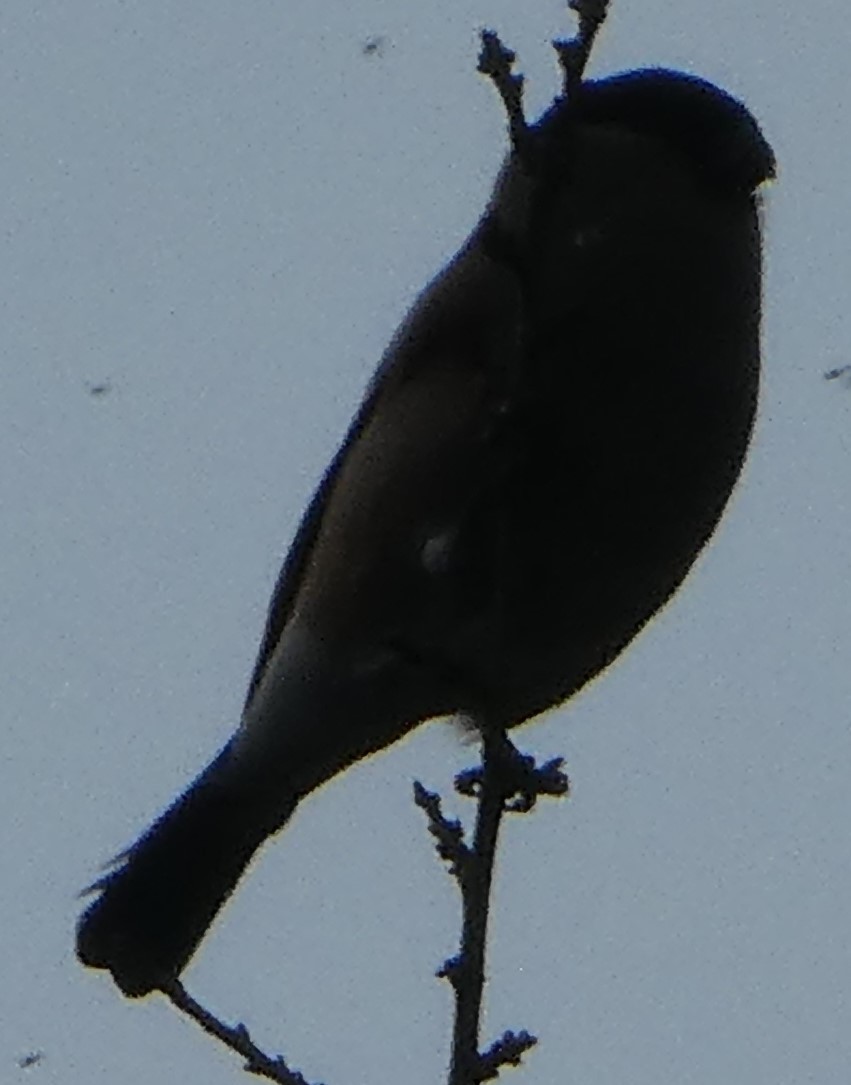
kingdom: Animalia
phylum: Chordata
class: Aves
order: Passeriformes
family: Fringillidae
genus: Pyrrhula
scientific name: Pyrrhula pyrrhula
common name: Eurasian bullfinch
